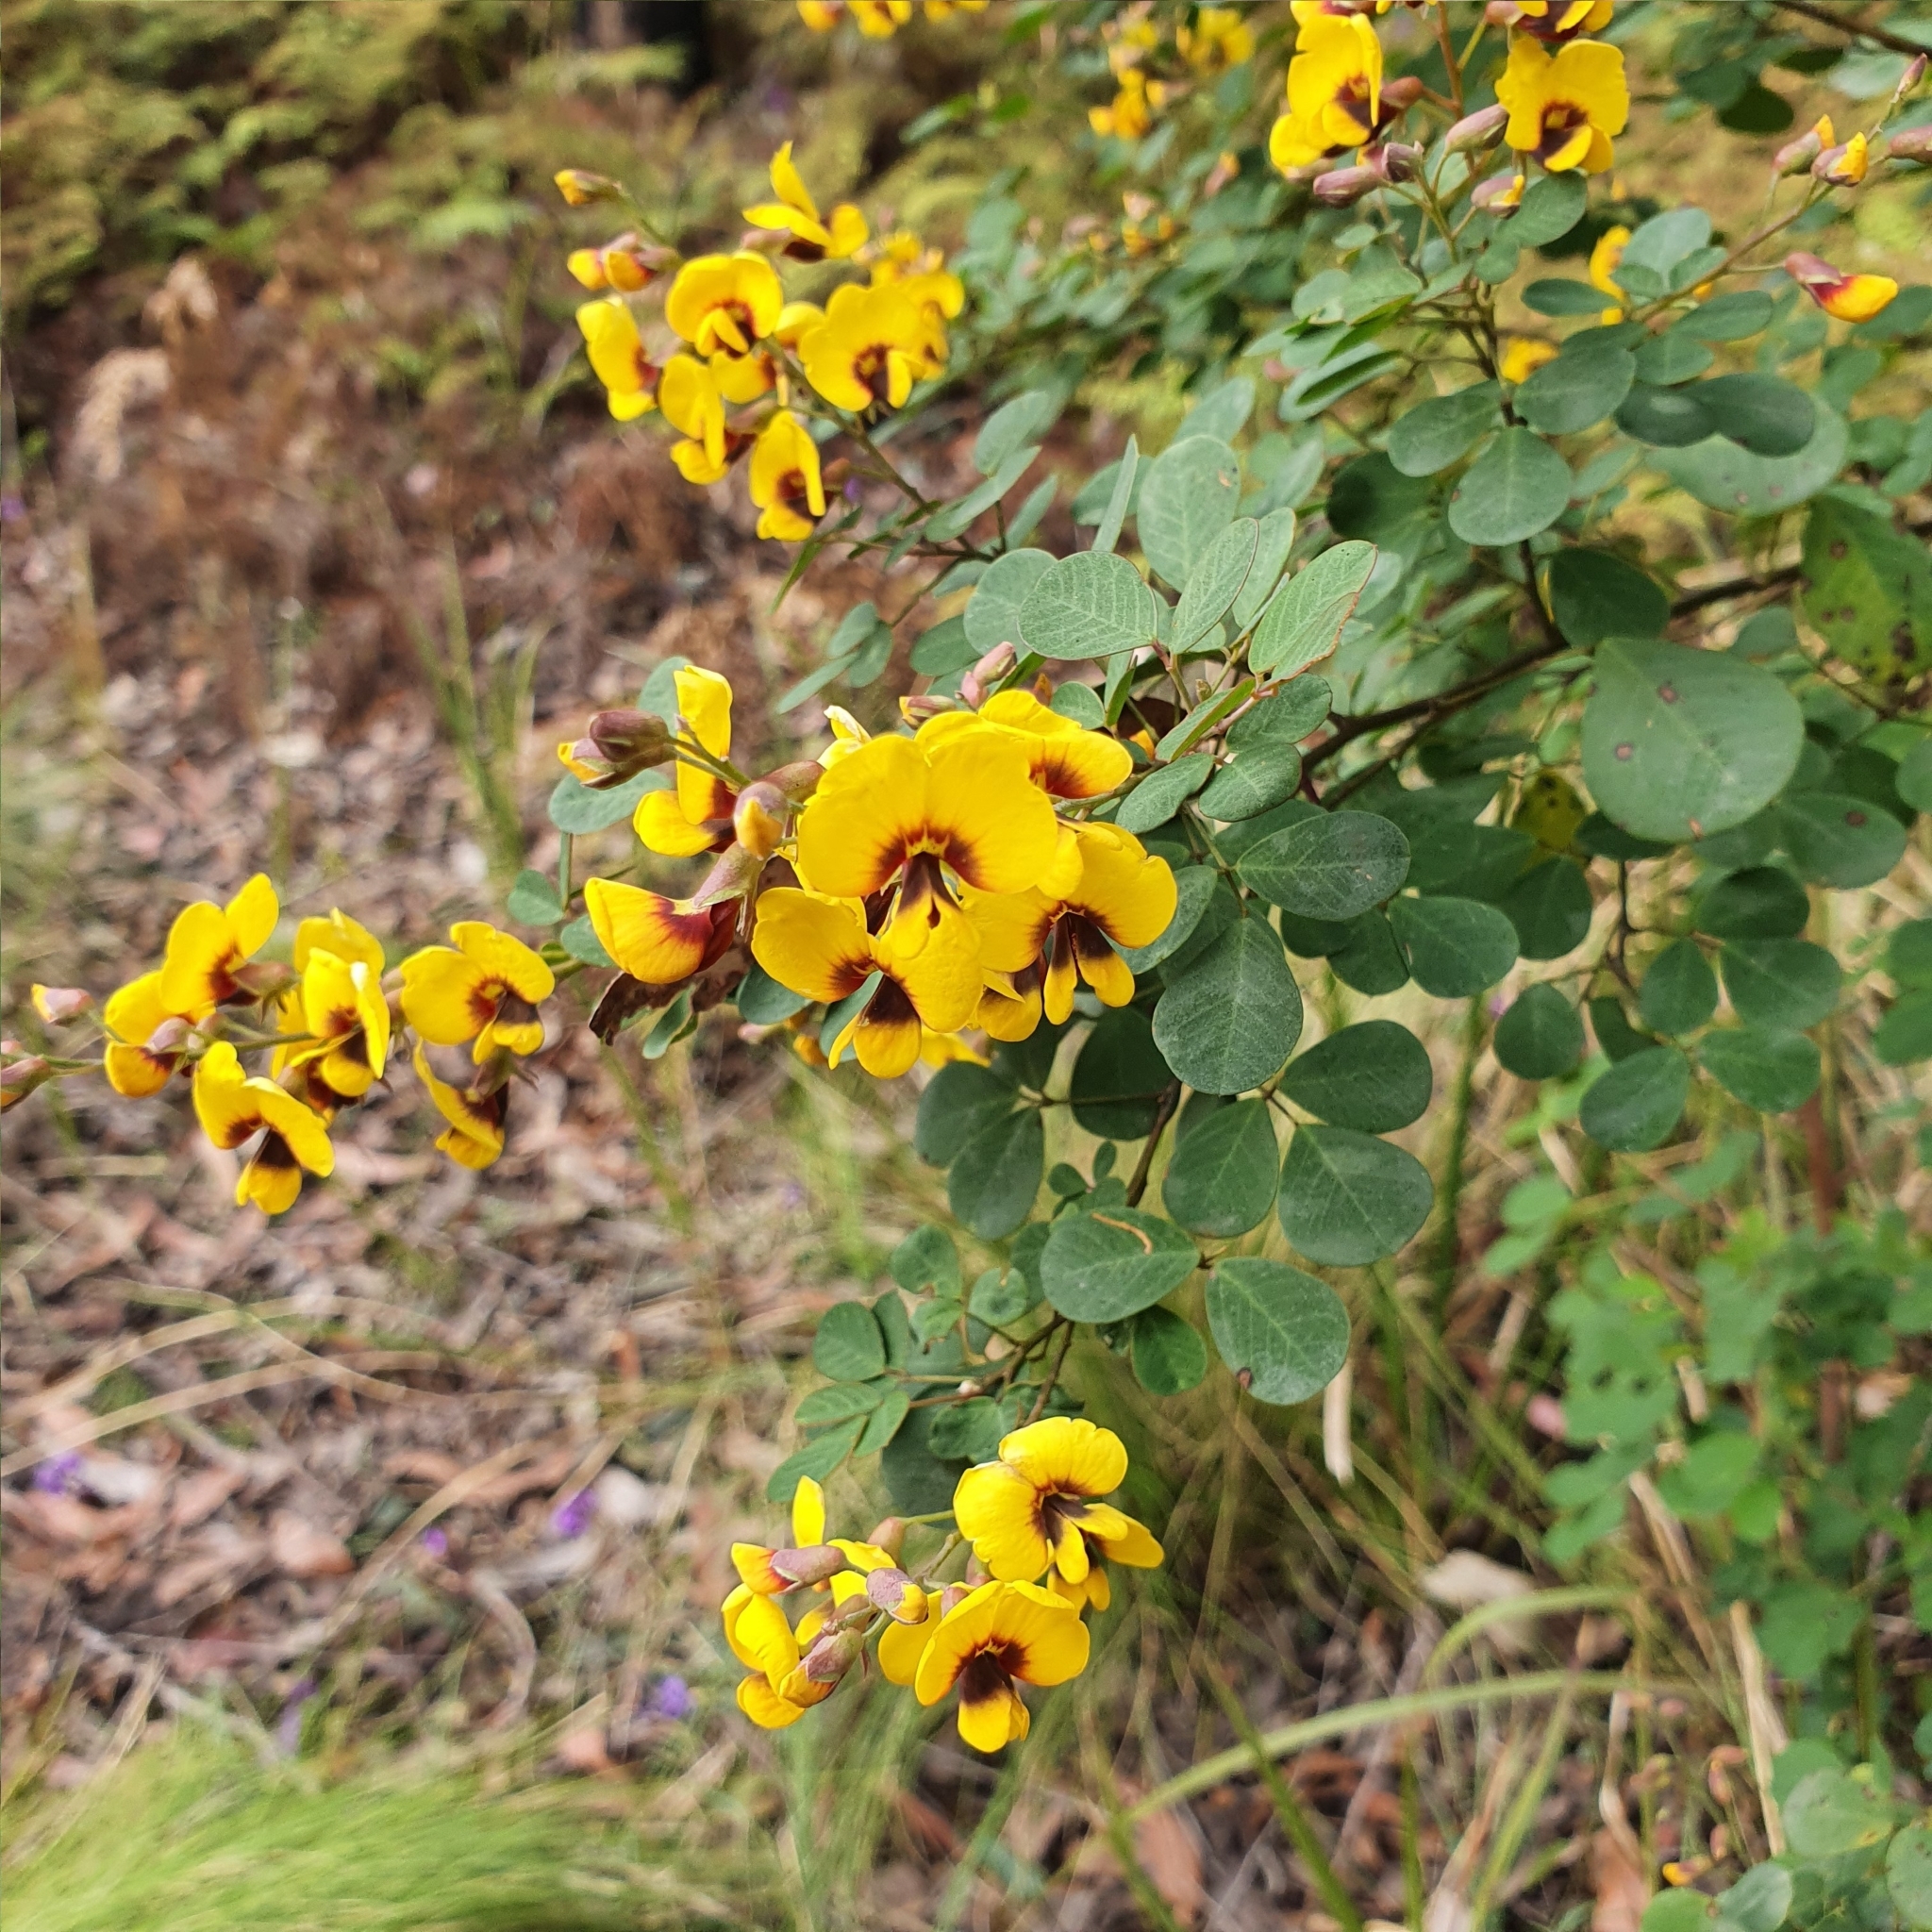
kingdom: Plantae
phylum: Tracheophyta
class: Magnoliopsida
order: Fabales
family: Fabaceae
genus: Goodia
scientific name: Goodia lotifolia
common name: Cloverleaf-poison
